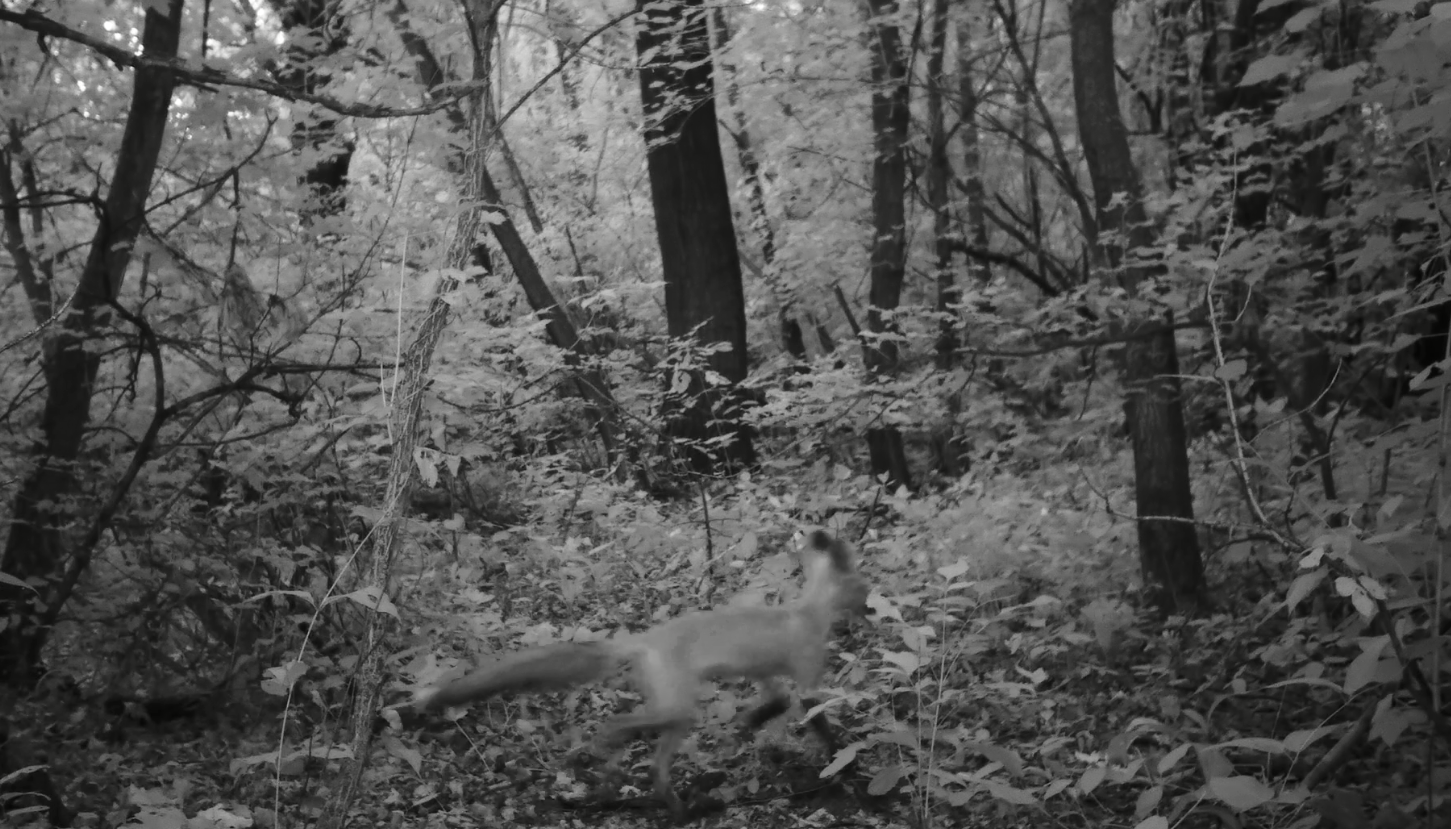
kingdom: Animalia
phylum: Chordata
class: Mammalia
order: Carnivora
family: Canidae
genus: Vulpes
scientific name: Vulpes vulpes
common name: Red fox
